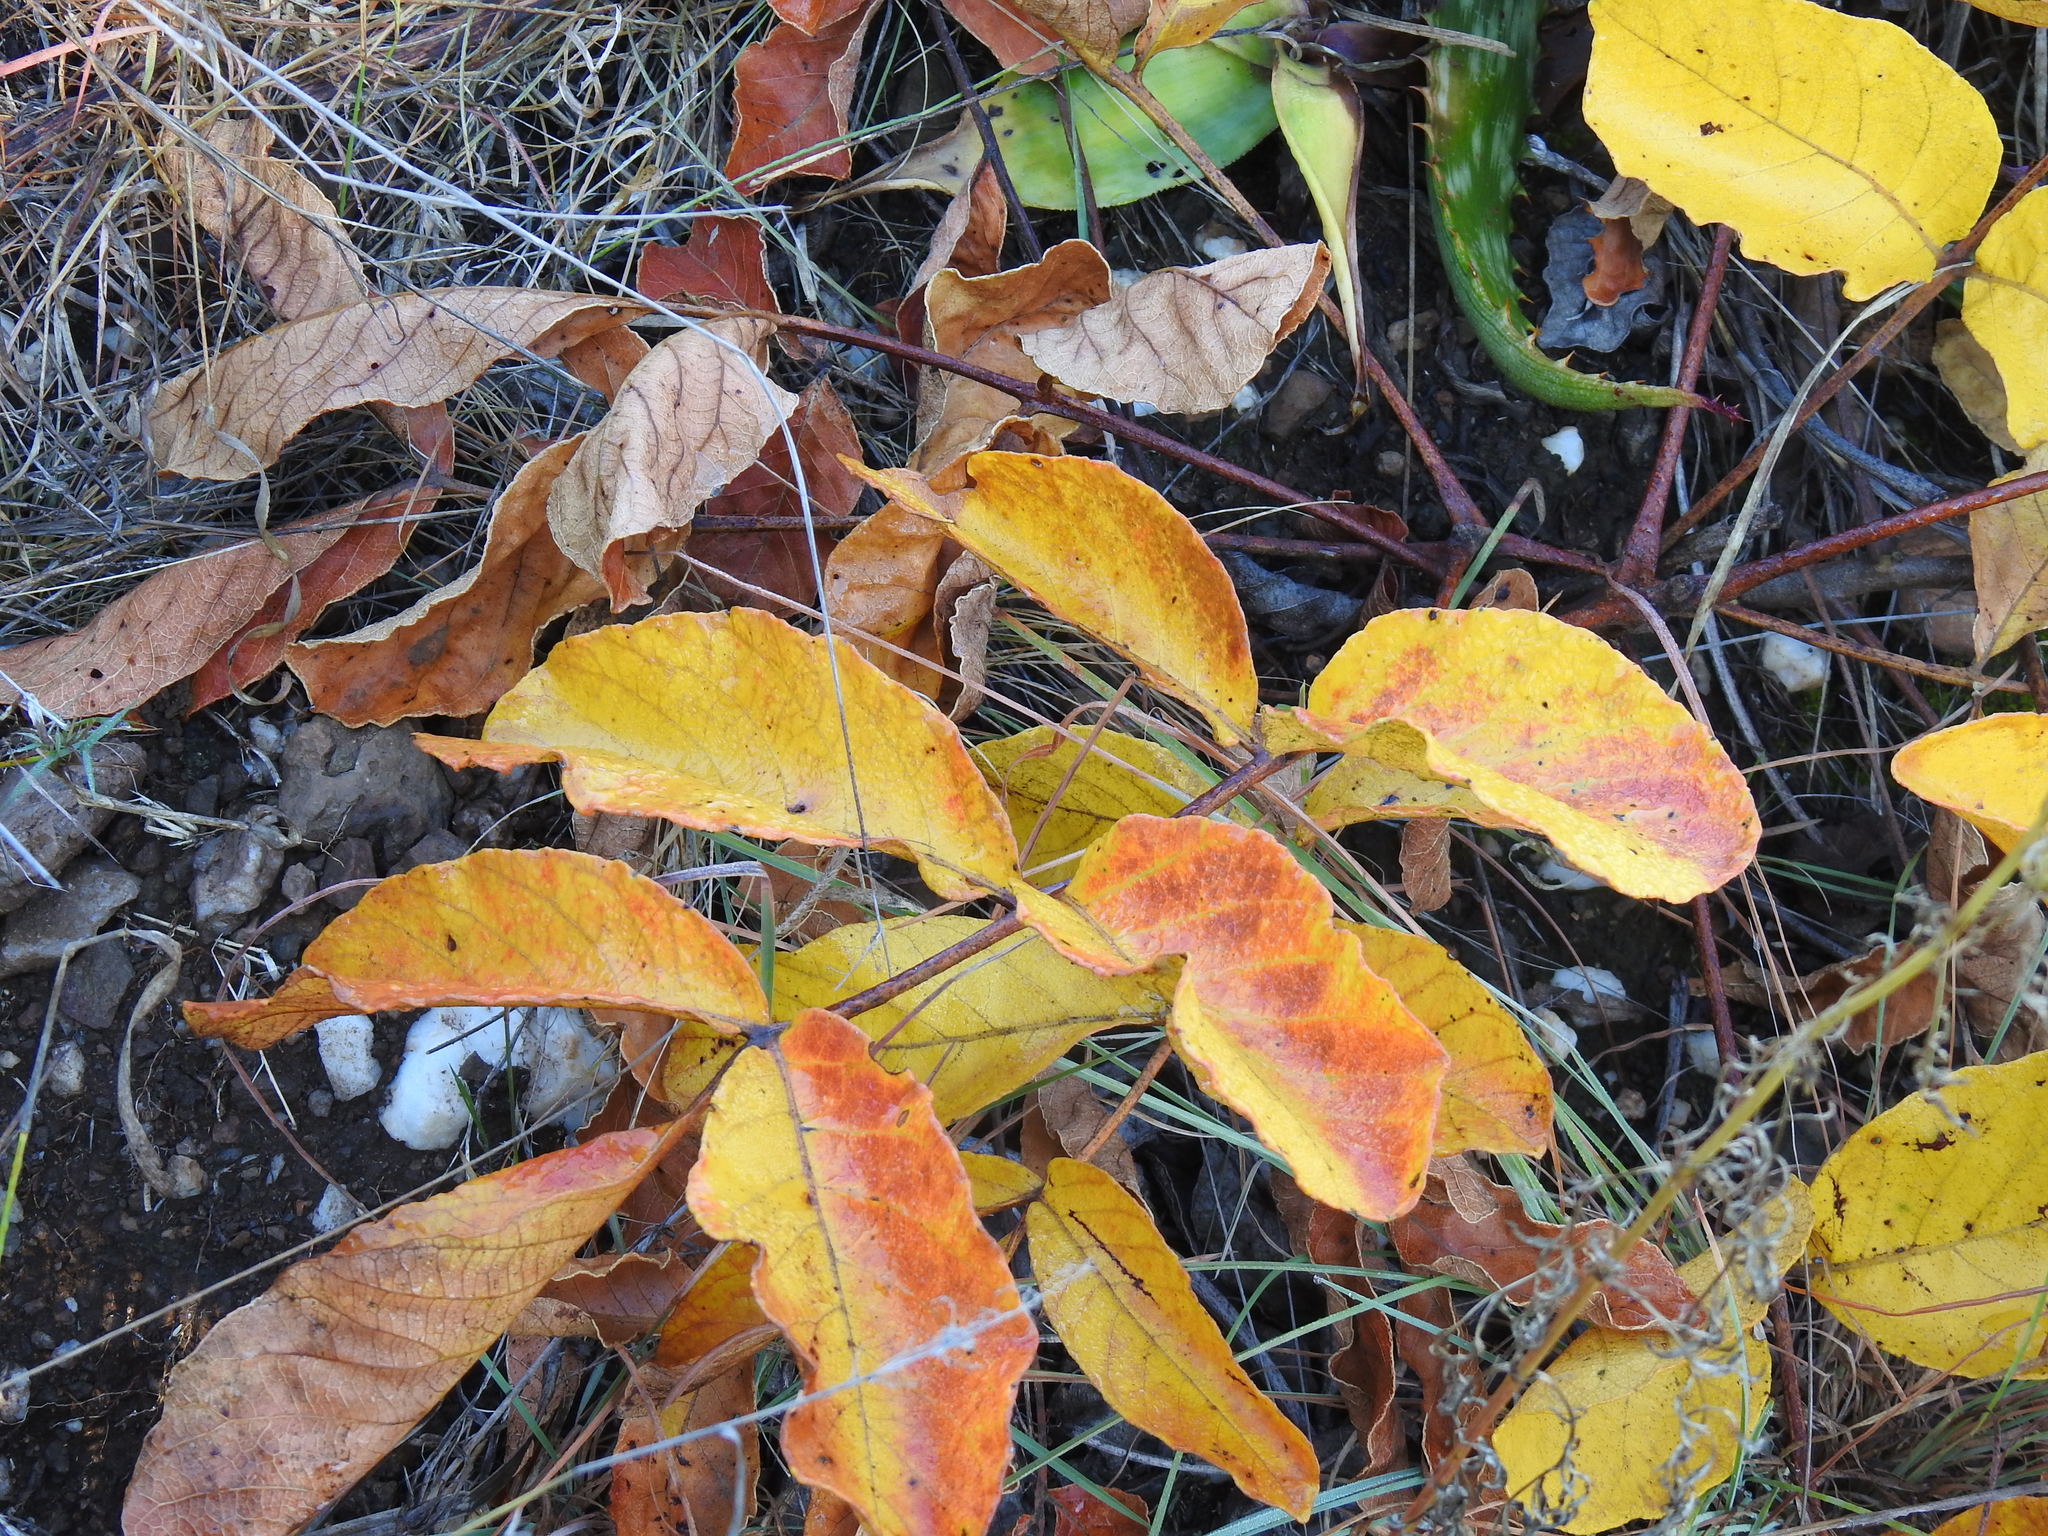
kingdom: Plantae
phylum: Tracheophyta
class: Magnoliopsida
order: Sapindales
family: Anacardiaceae
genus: Lannea
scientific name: Lannea edulis
